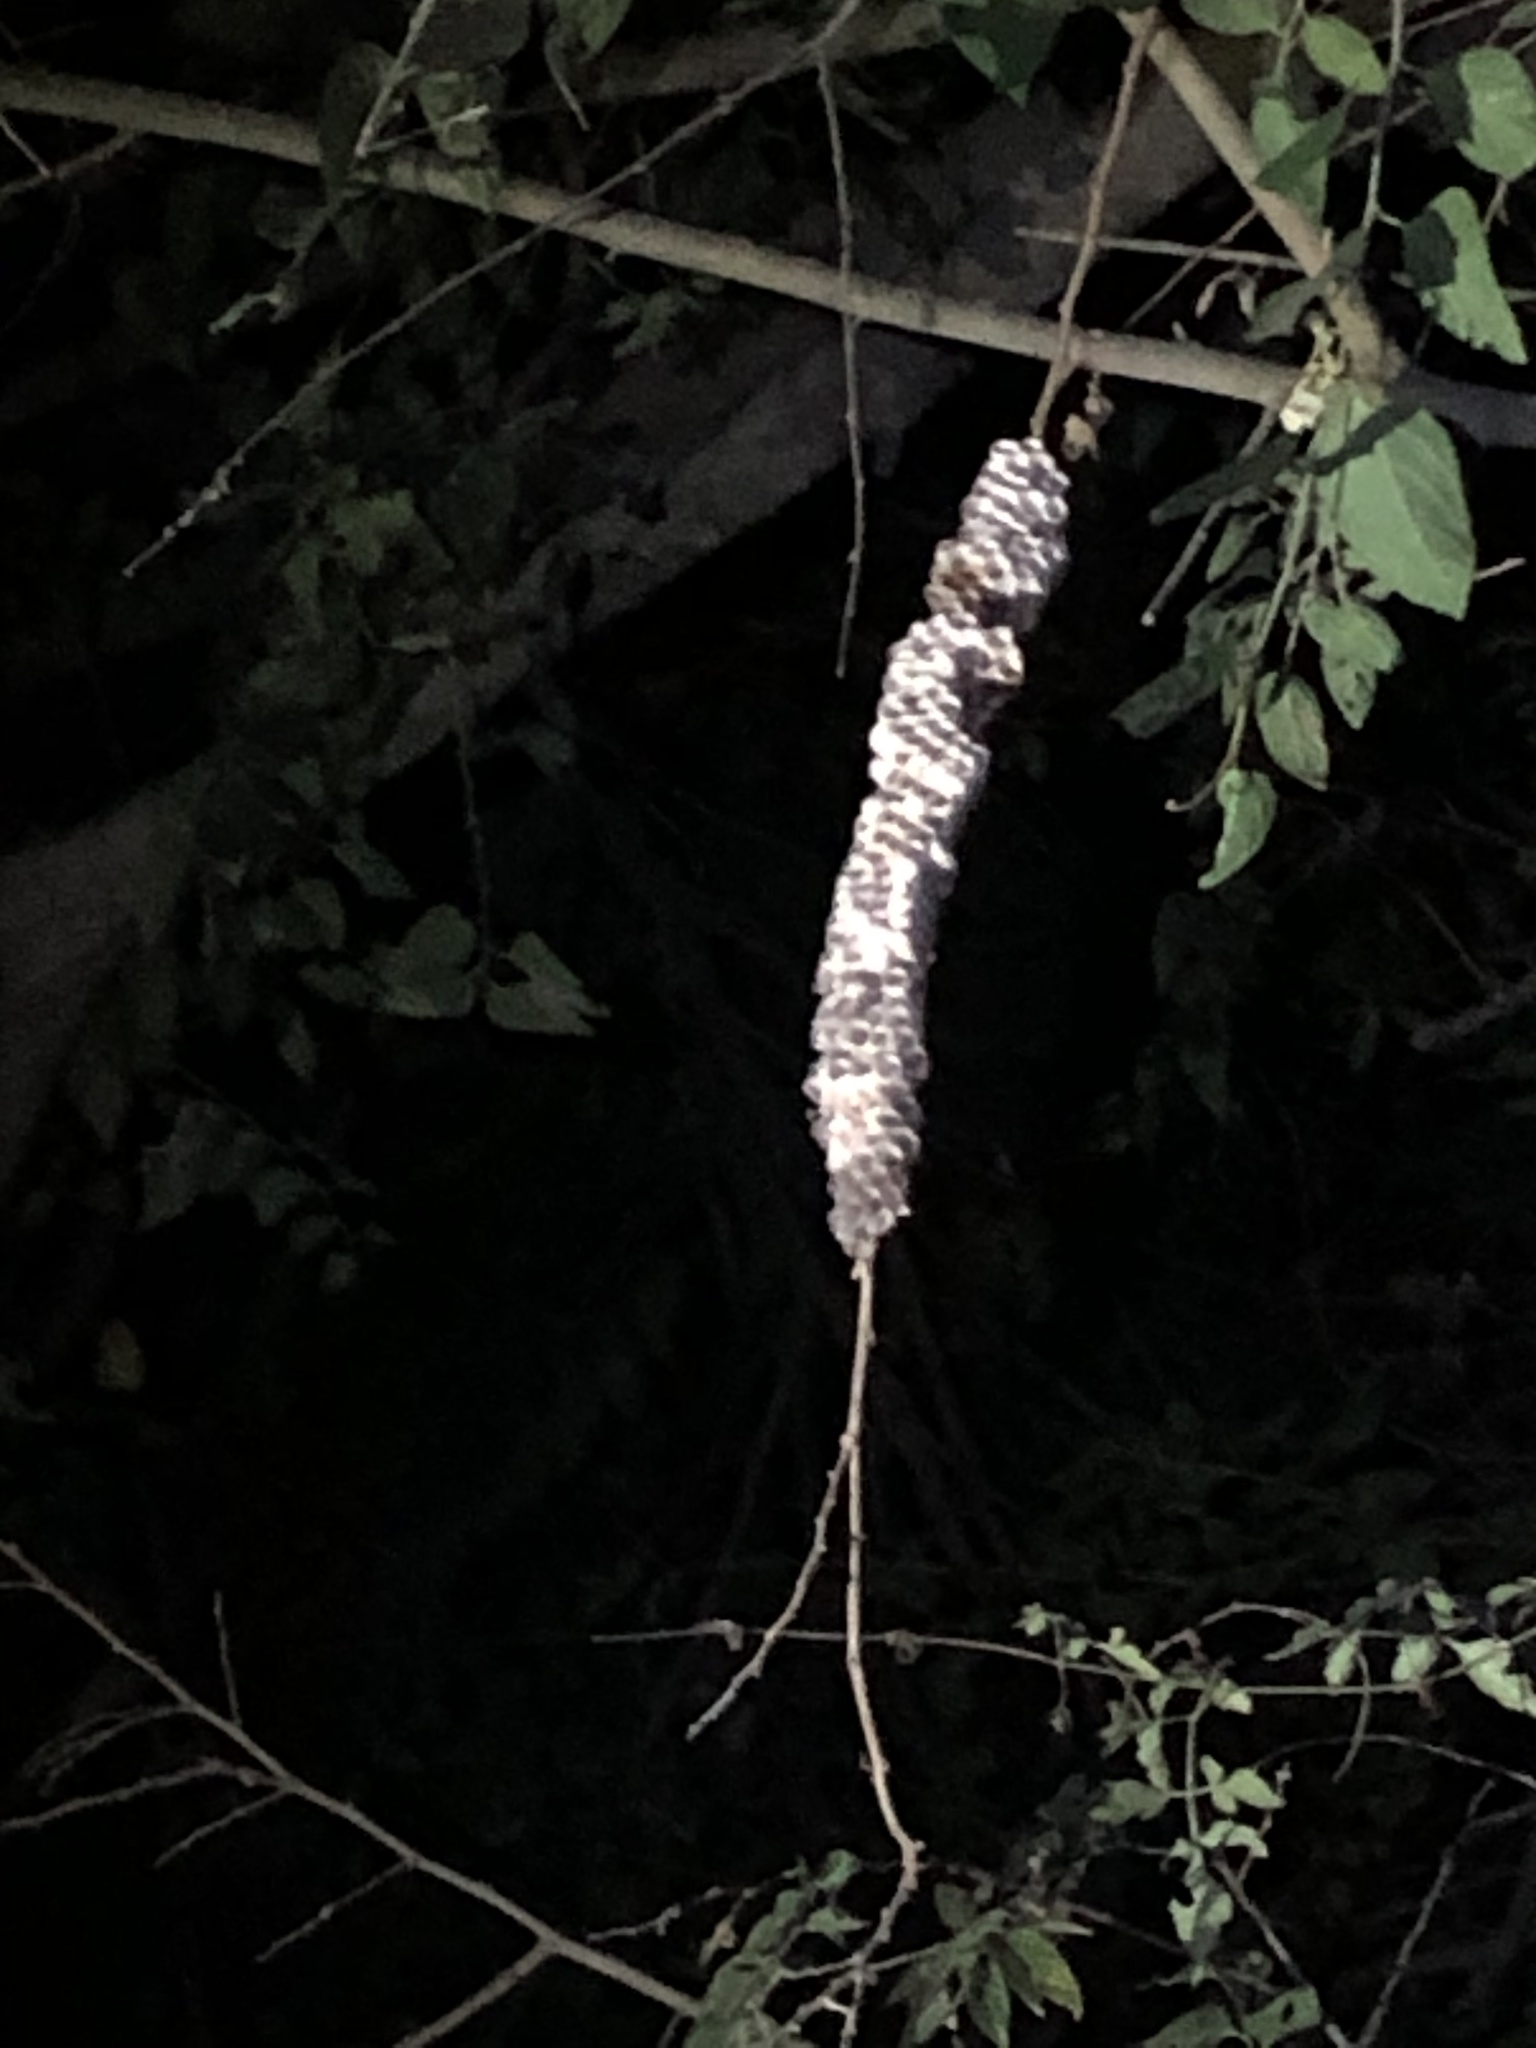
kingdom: Animalia
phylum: Arthropoda
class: Insecta
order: Hymenoptera
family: Eumenidae
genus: Polistes
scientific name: Polistes
